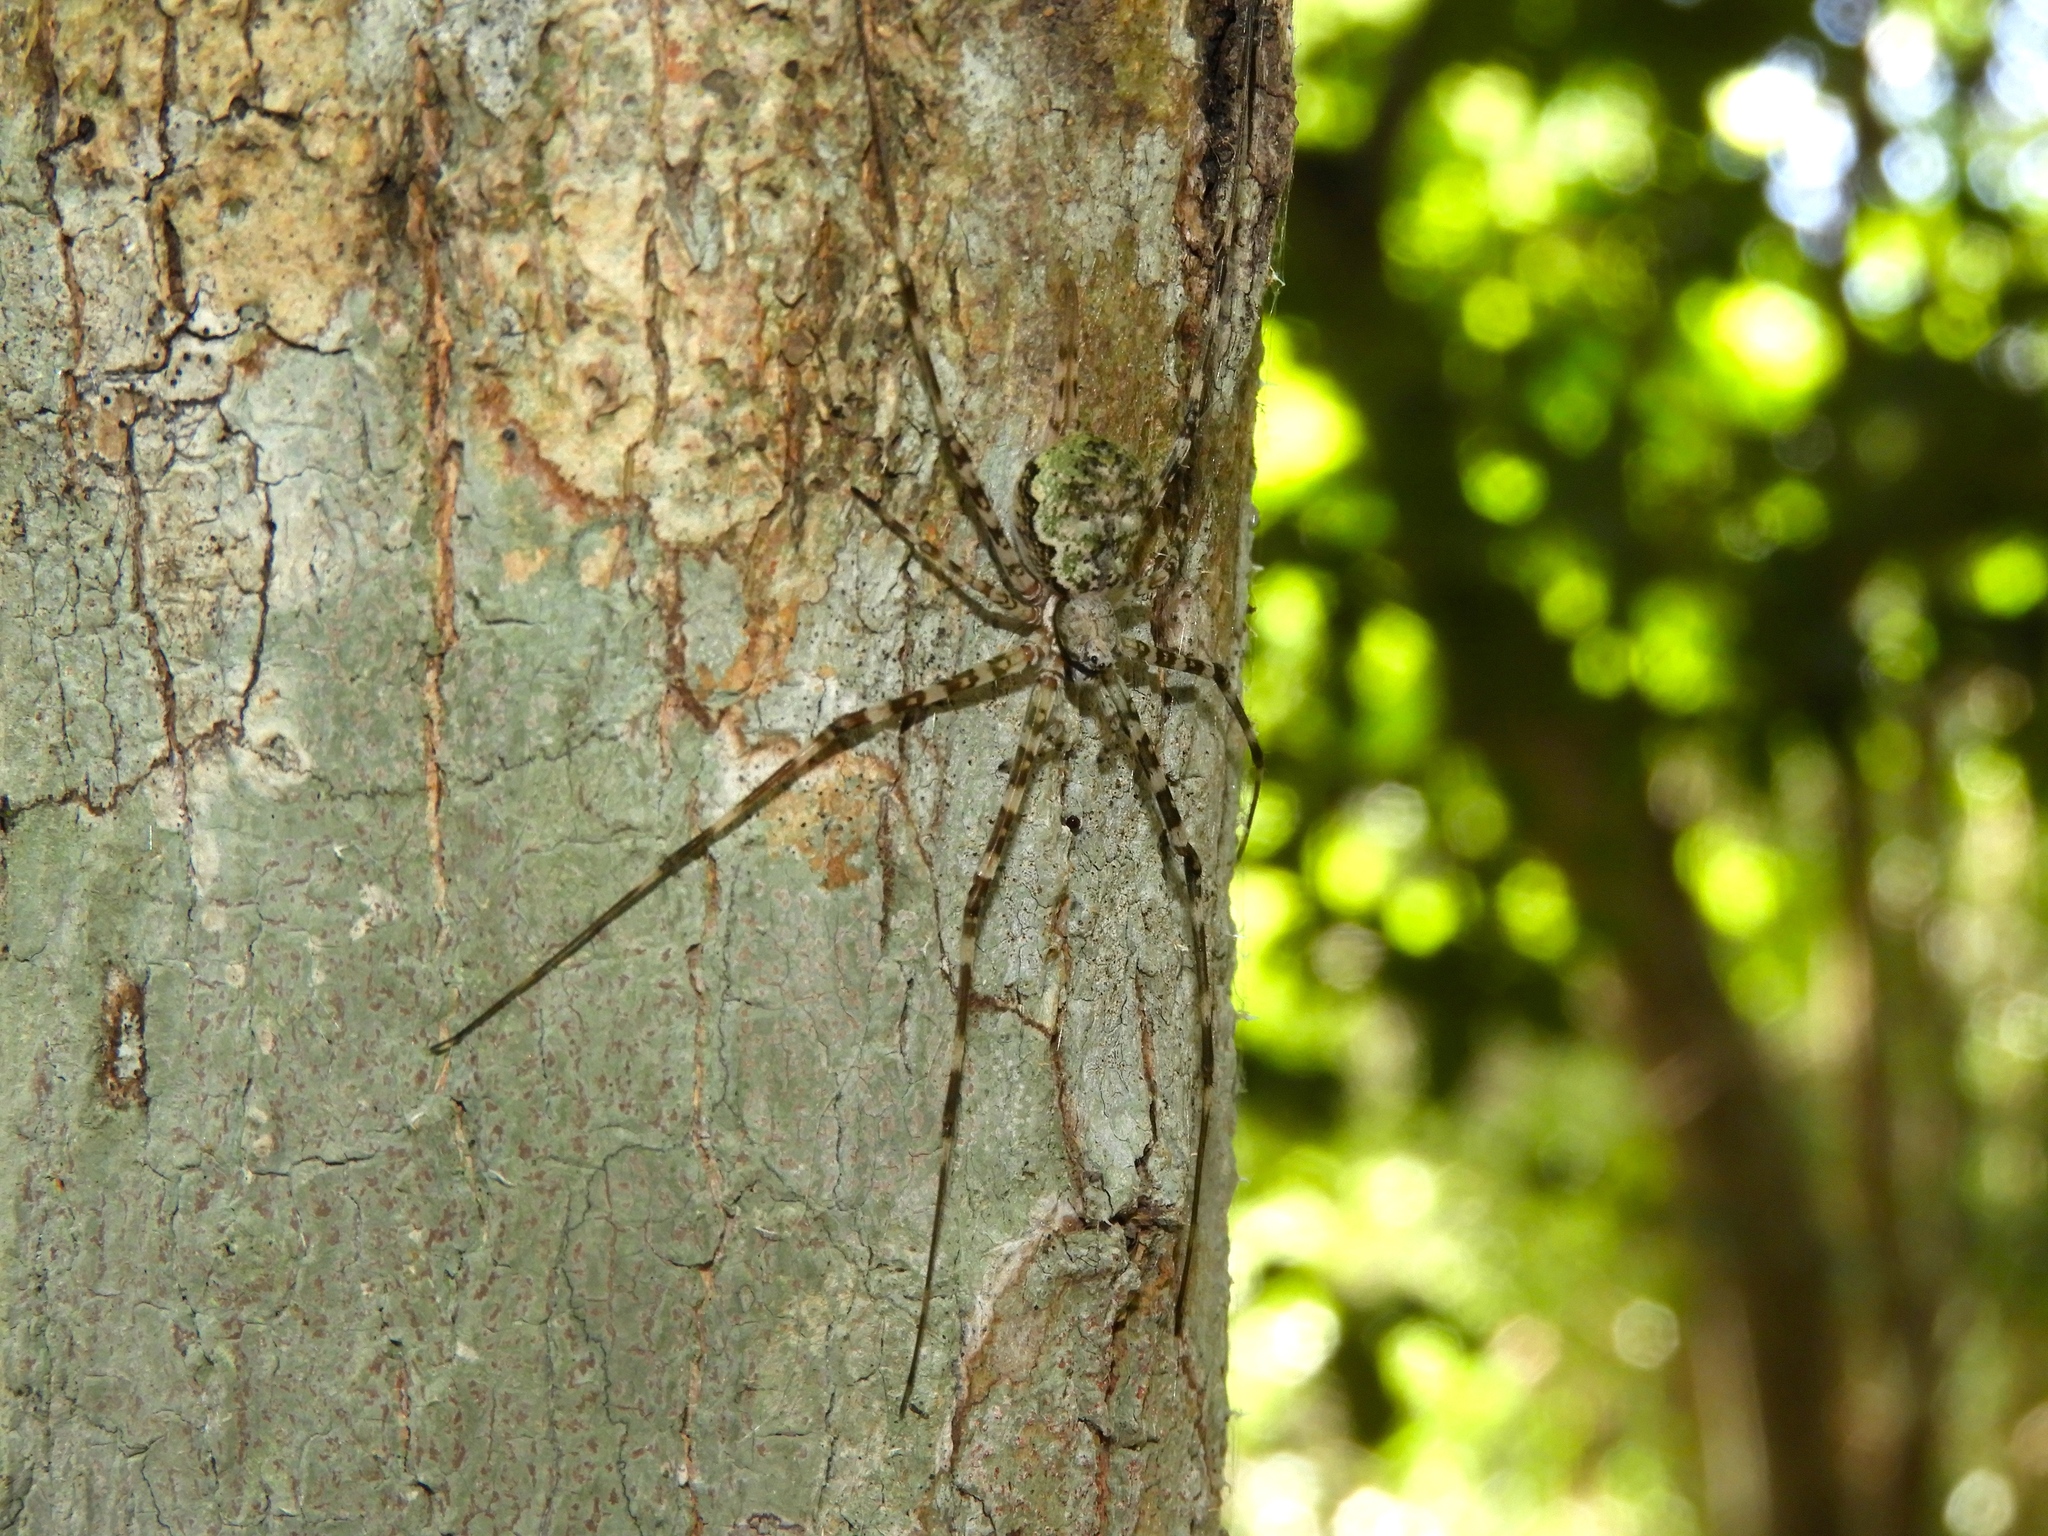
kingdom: Animalia
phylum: Arthropoda
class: Arachnida
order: Araneae
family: Hersiliidae
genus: Neotama
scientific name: Neotama
